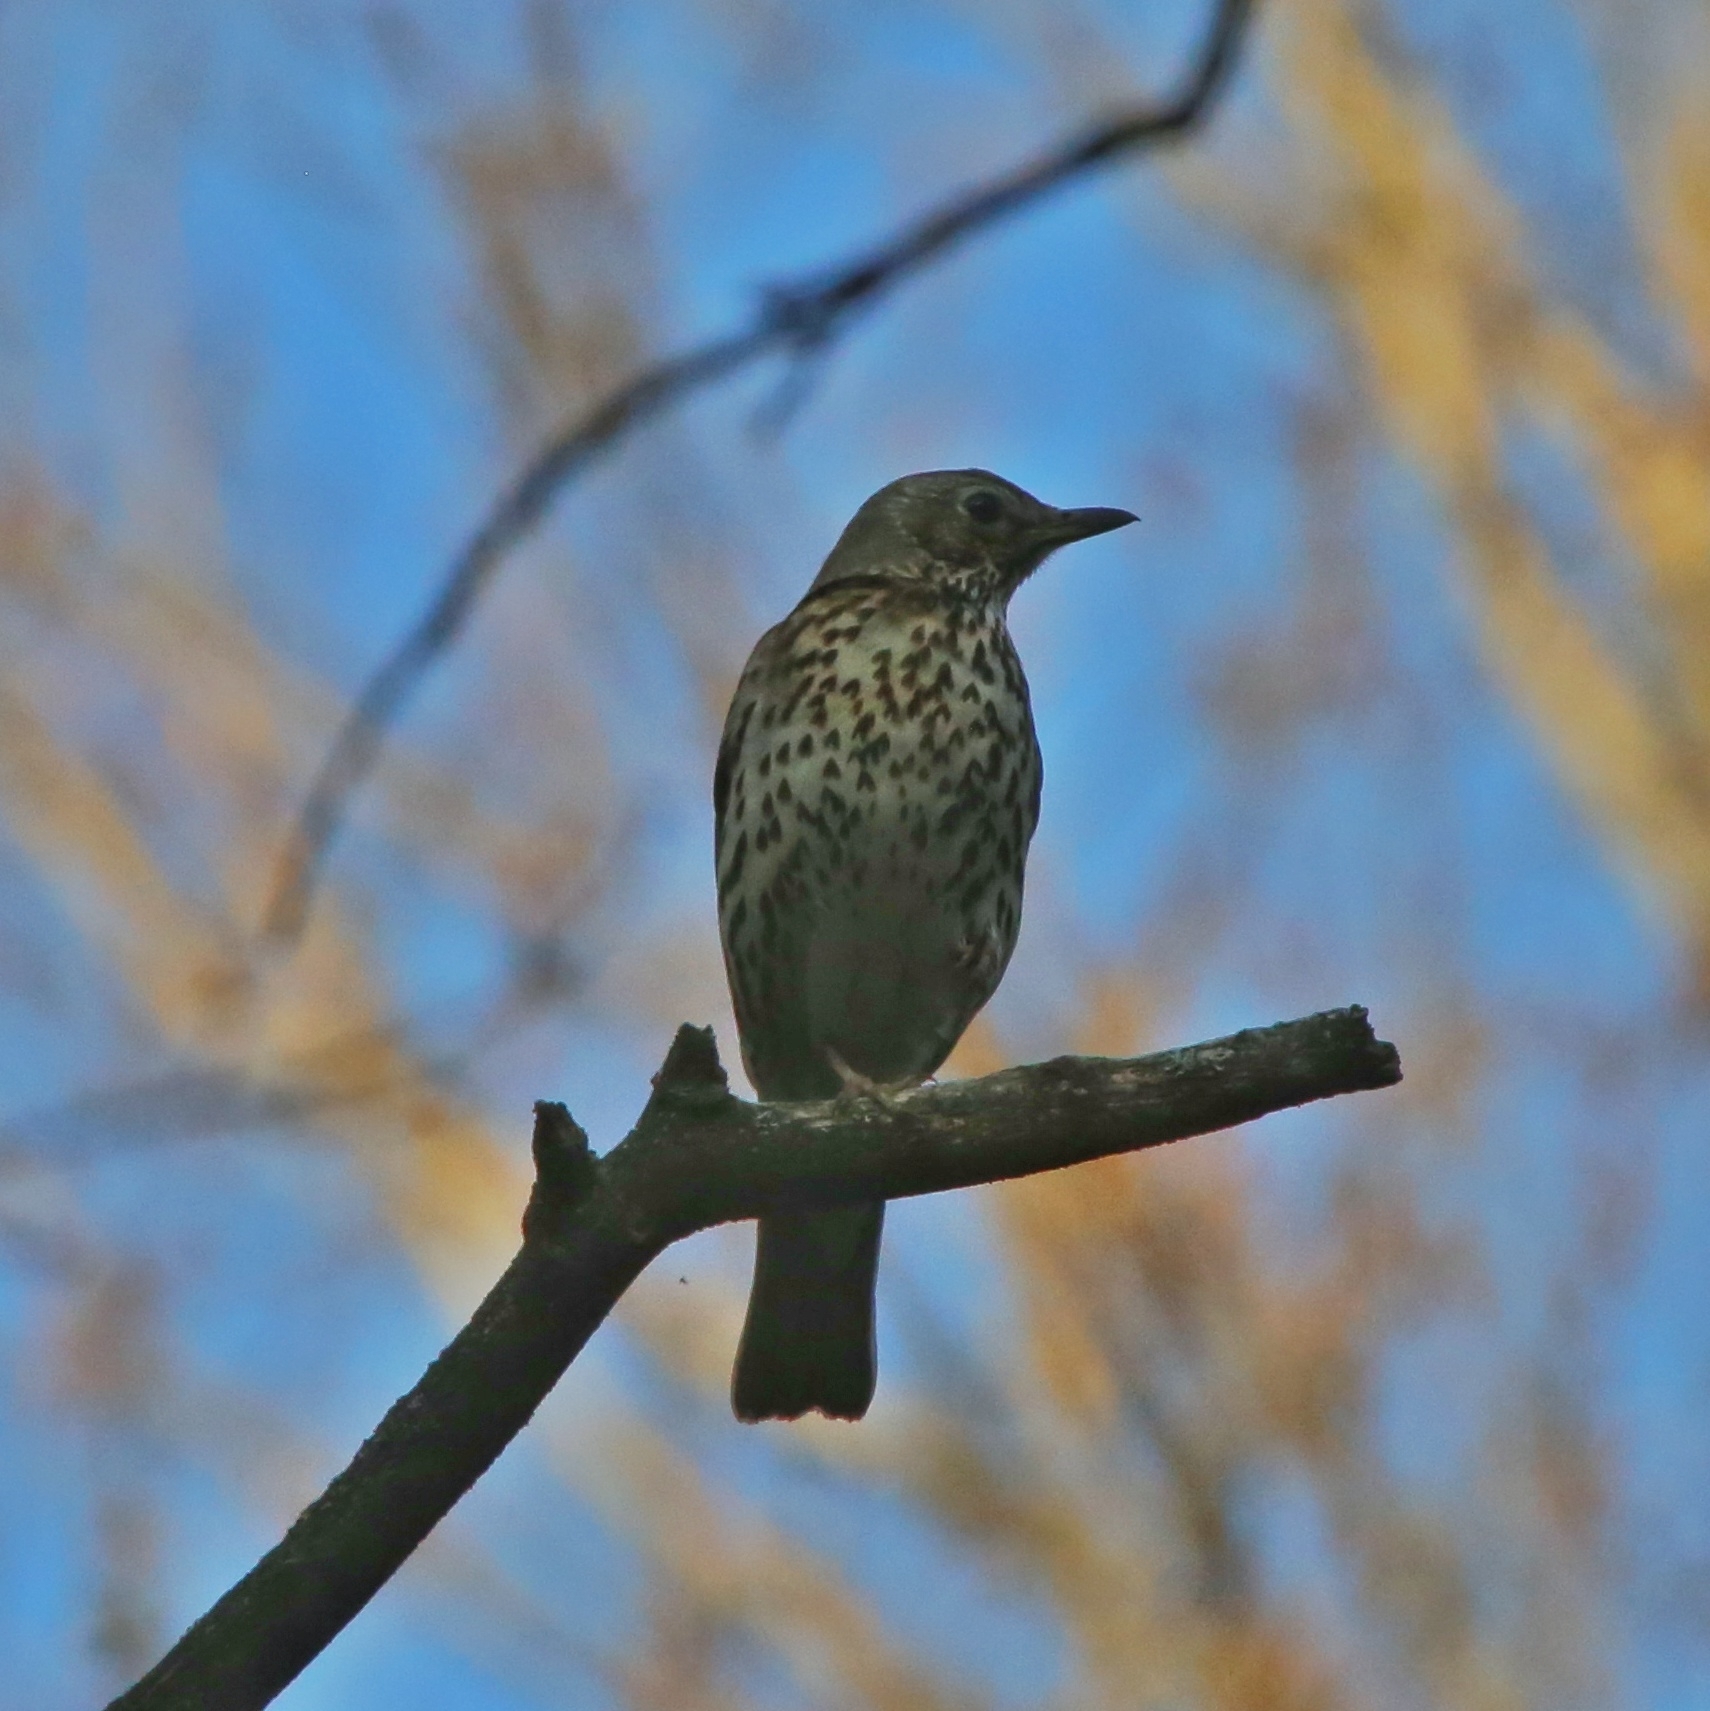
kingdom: Animalia
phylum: Chordata
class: Aves
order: Passeriformes
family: Turdidae
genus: Turdus
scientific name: Turdus philomelos
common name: Song thrush
